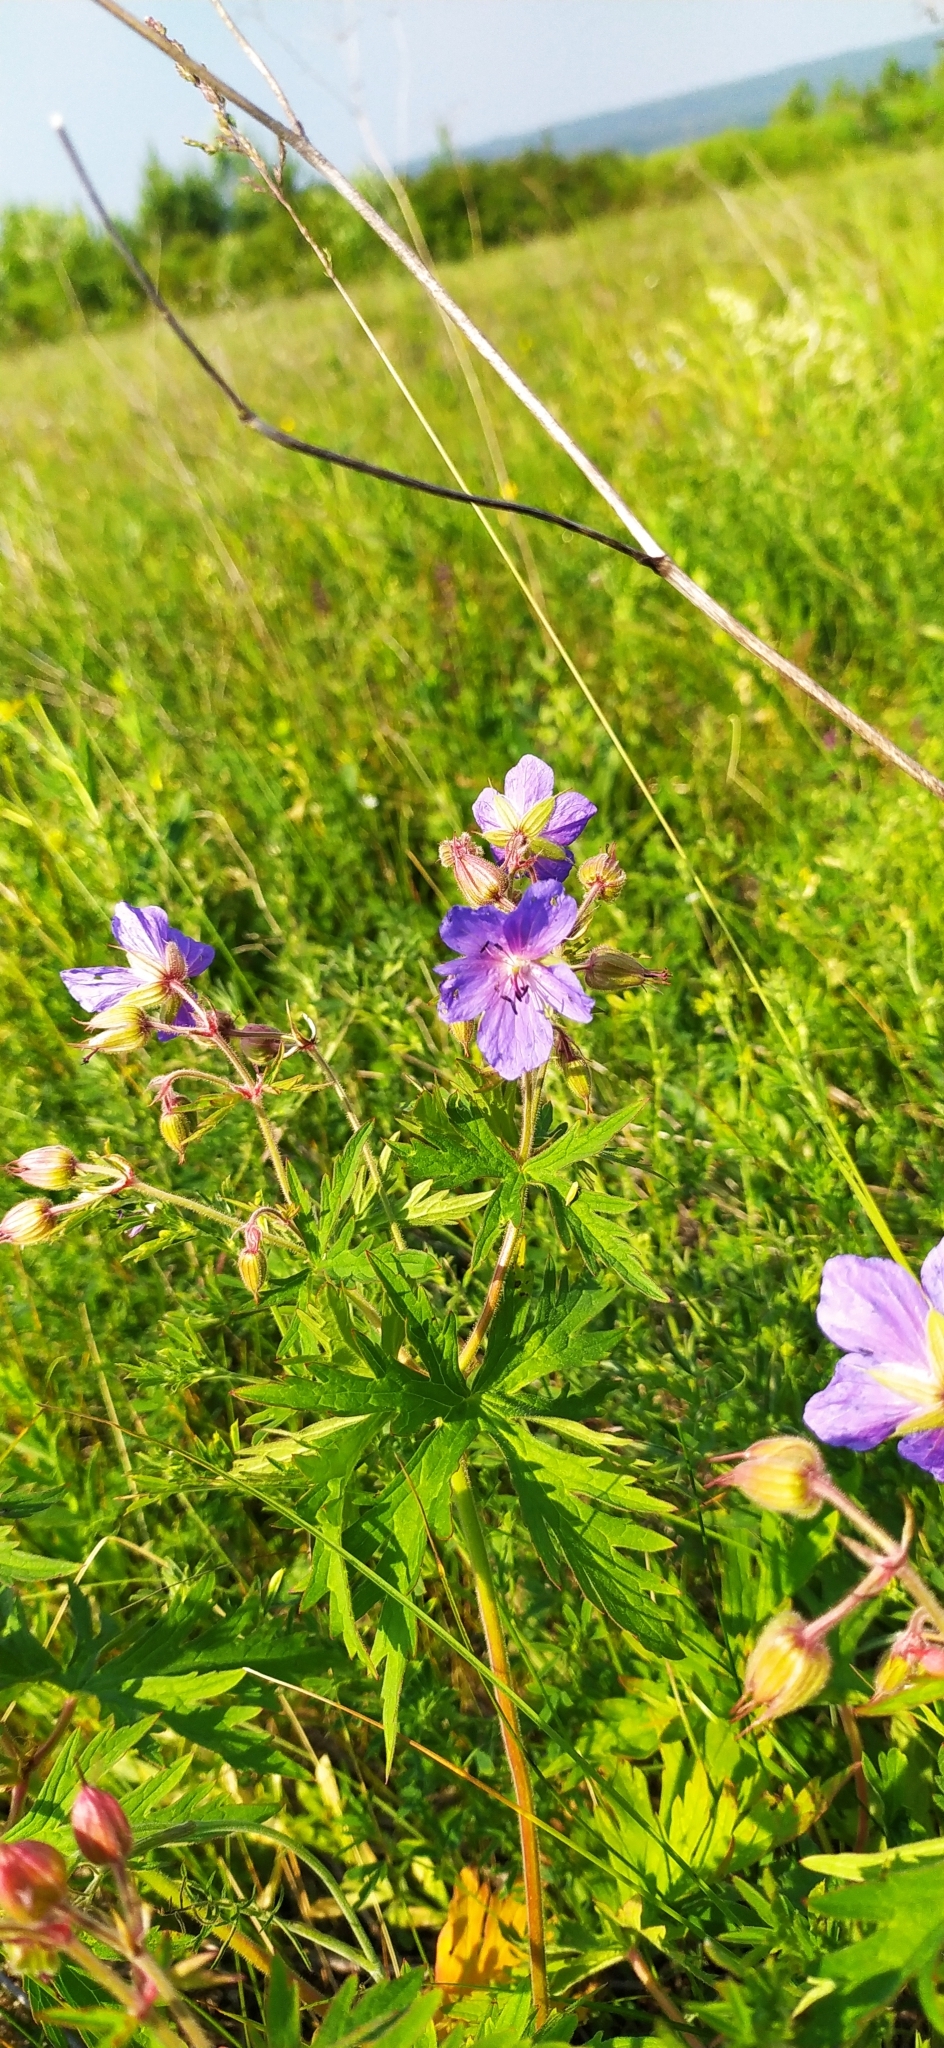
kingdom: Plantae
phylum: Tracheophyta
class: Magnoliopsida
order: Geraniales
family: Geraniaceae
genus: Geranium
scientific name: Geranium pratense
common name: Meadow crane's-bill
